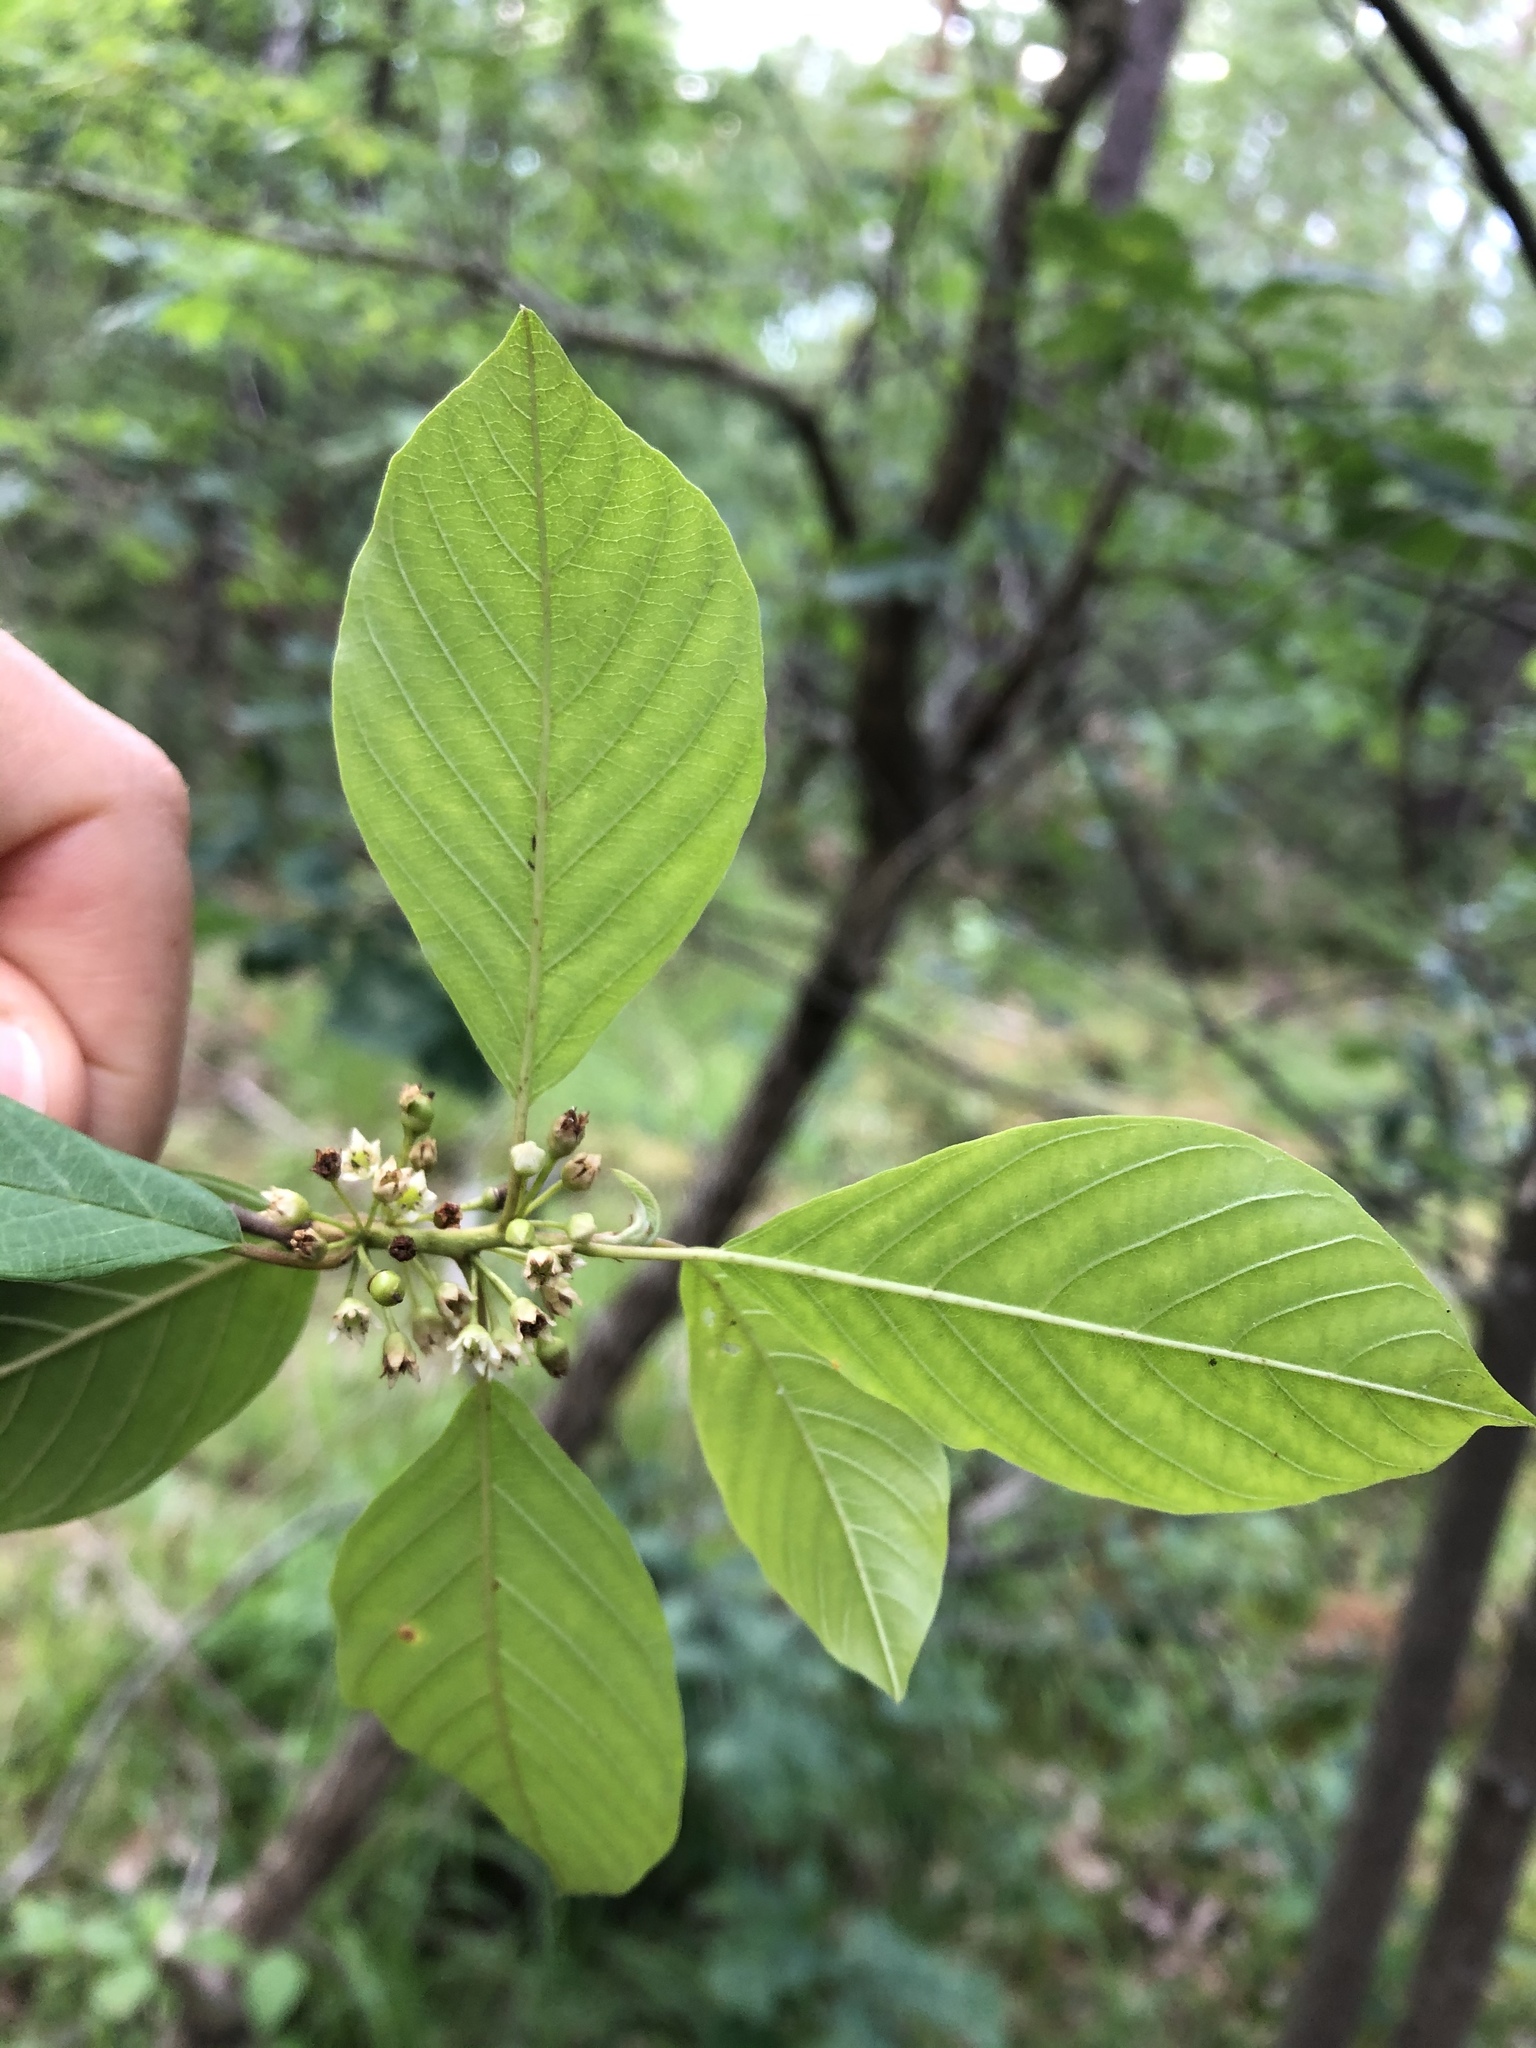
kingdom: Plantae
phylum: Tracheophyta
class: Magnoliopsida
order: Rosales
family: Rhamnaceae
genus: Frangula
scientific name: Frangula alnus
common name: Alder buckthorn
